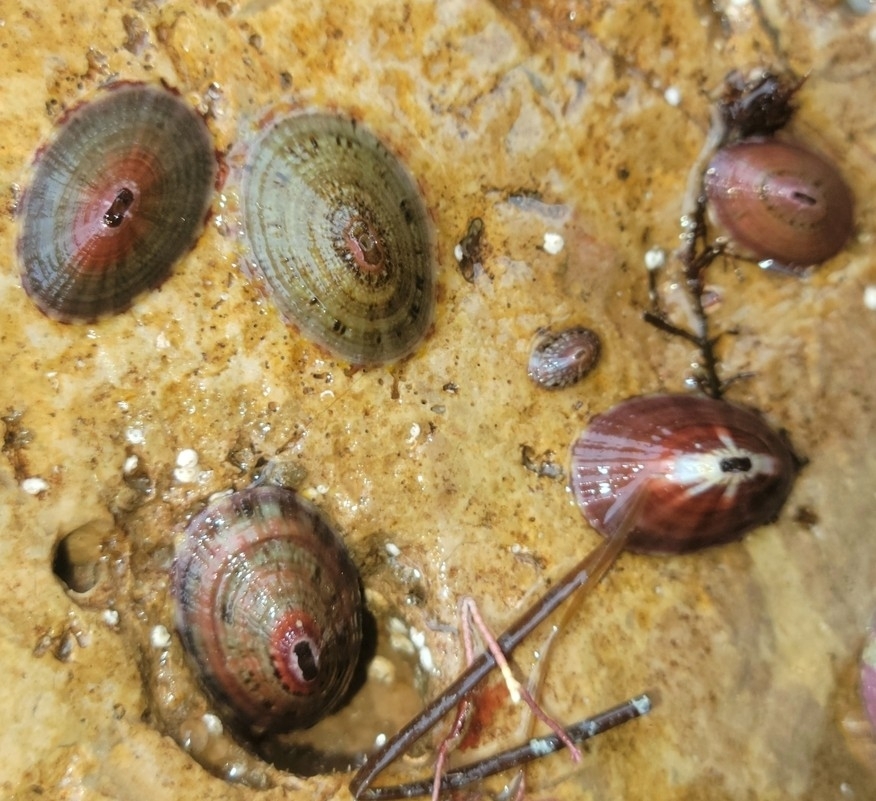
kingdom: Animalia
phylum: Mollusca
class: Gastropoda
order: Lepetellida
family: Fissurellidae
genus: Fissurella
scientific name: Fissurella volcano
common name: Volcano keyhole limpet
